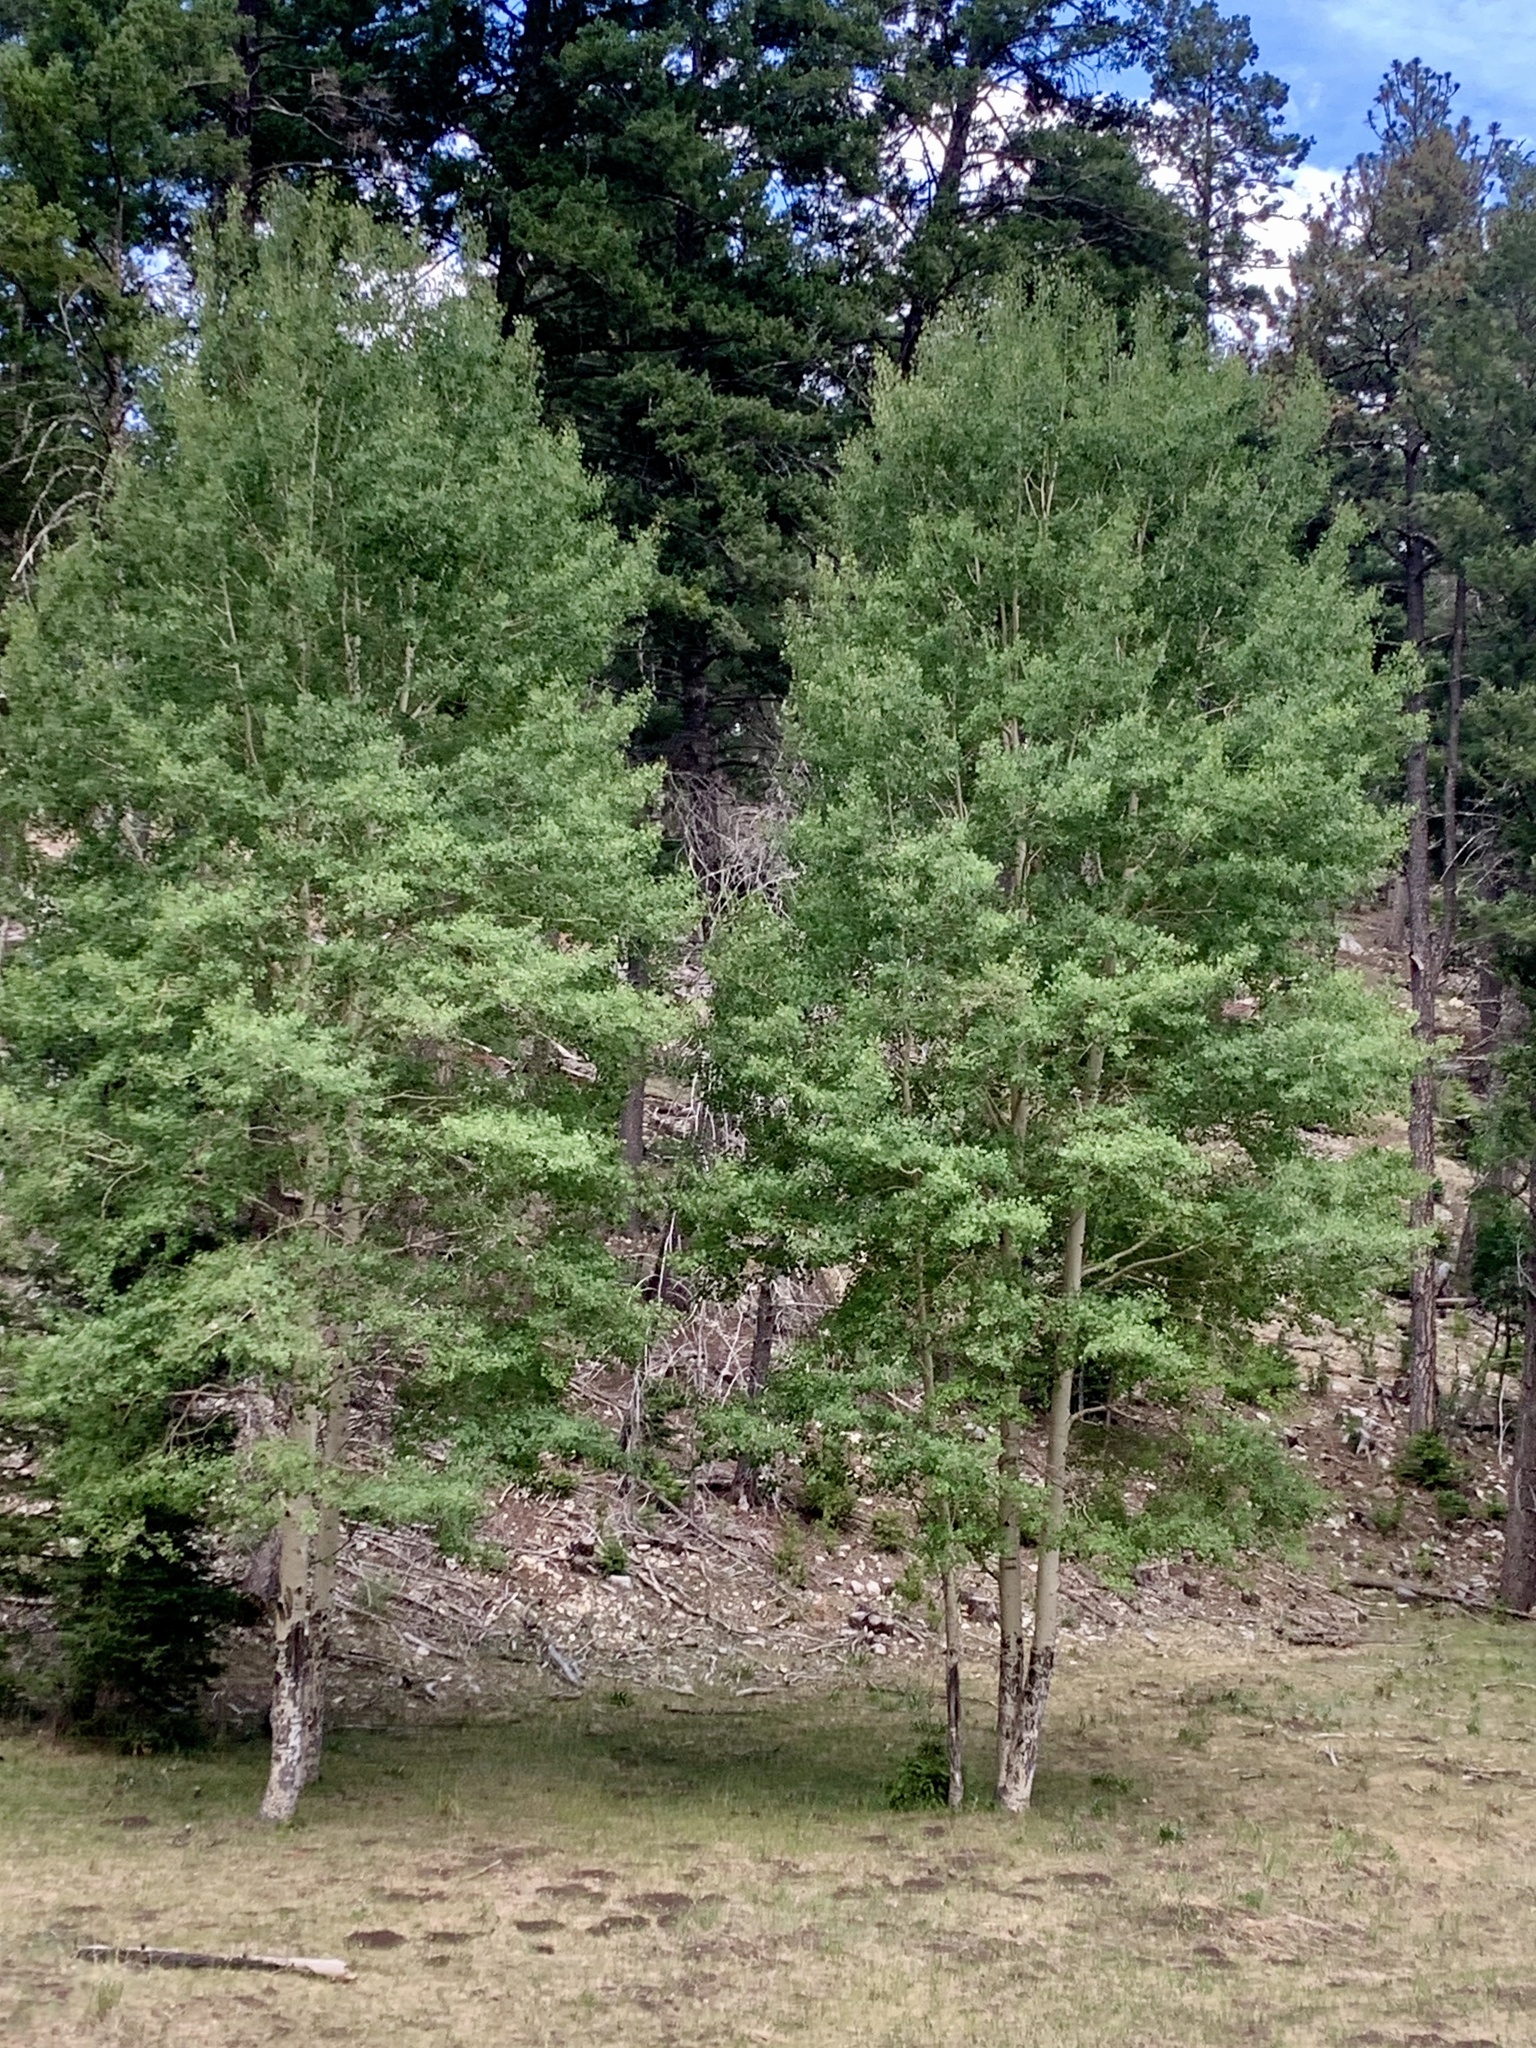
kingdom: Plantae
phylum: Tracheophyta
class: Magnoliopsida
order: Malpighiales
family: Salicaceae
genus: Populus
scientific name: Populus tremuloides
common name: Quaking aspen
